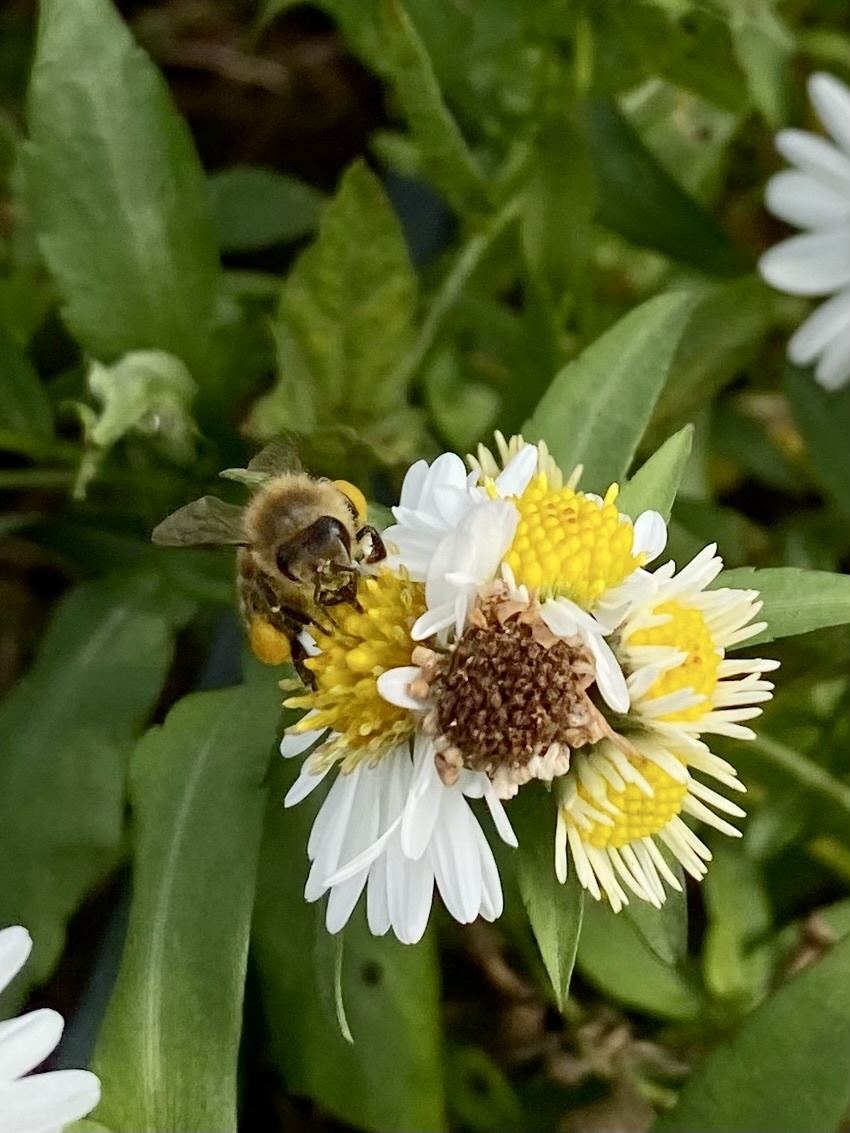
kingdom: Animalia
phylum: Arthropoda
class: Insecta
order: Hymenoptera
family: Apidae
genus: Apis
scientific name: Apis mellifera
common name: Honey bee
